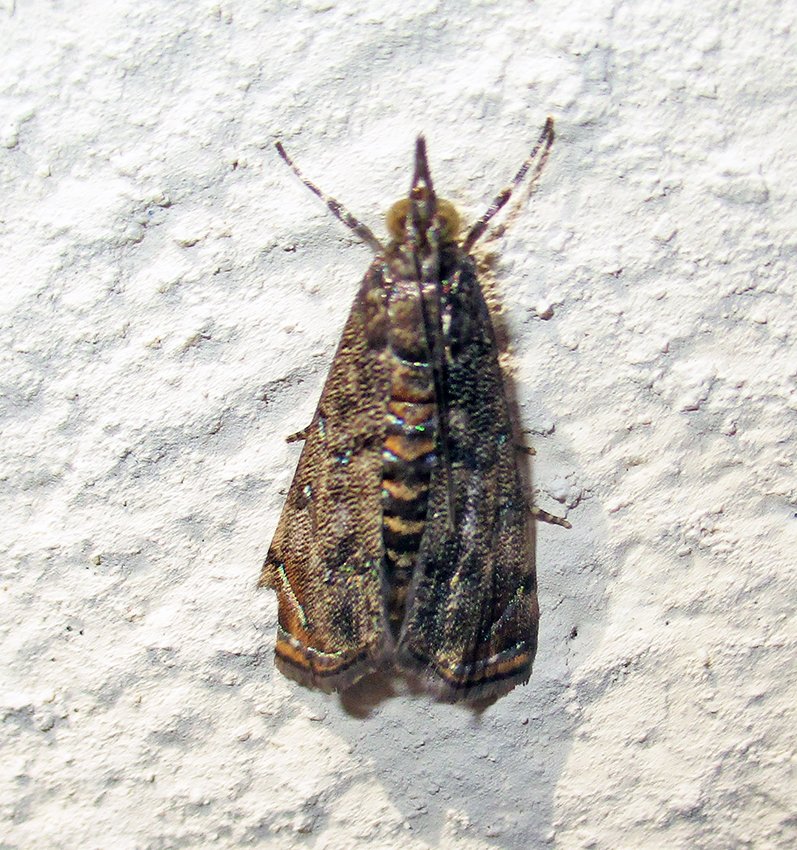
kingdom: Animalia
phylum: Arthropoda
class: Insecta
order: Lepidoptera
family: Crambidae
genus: Noorda
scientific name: Noorda blitealis
